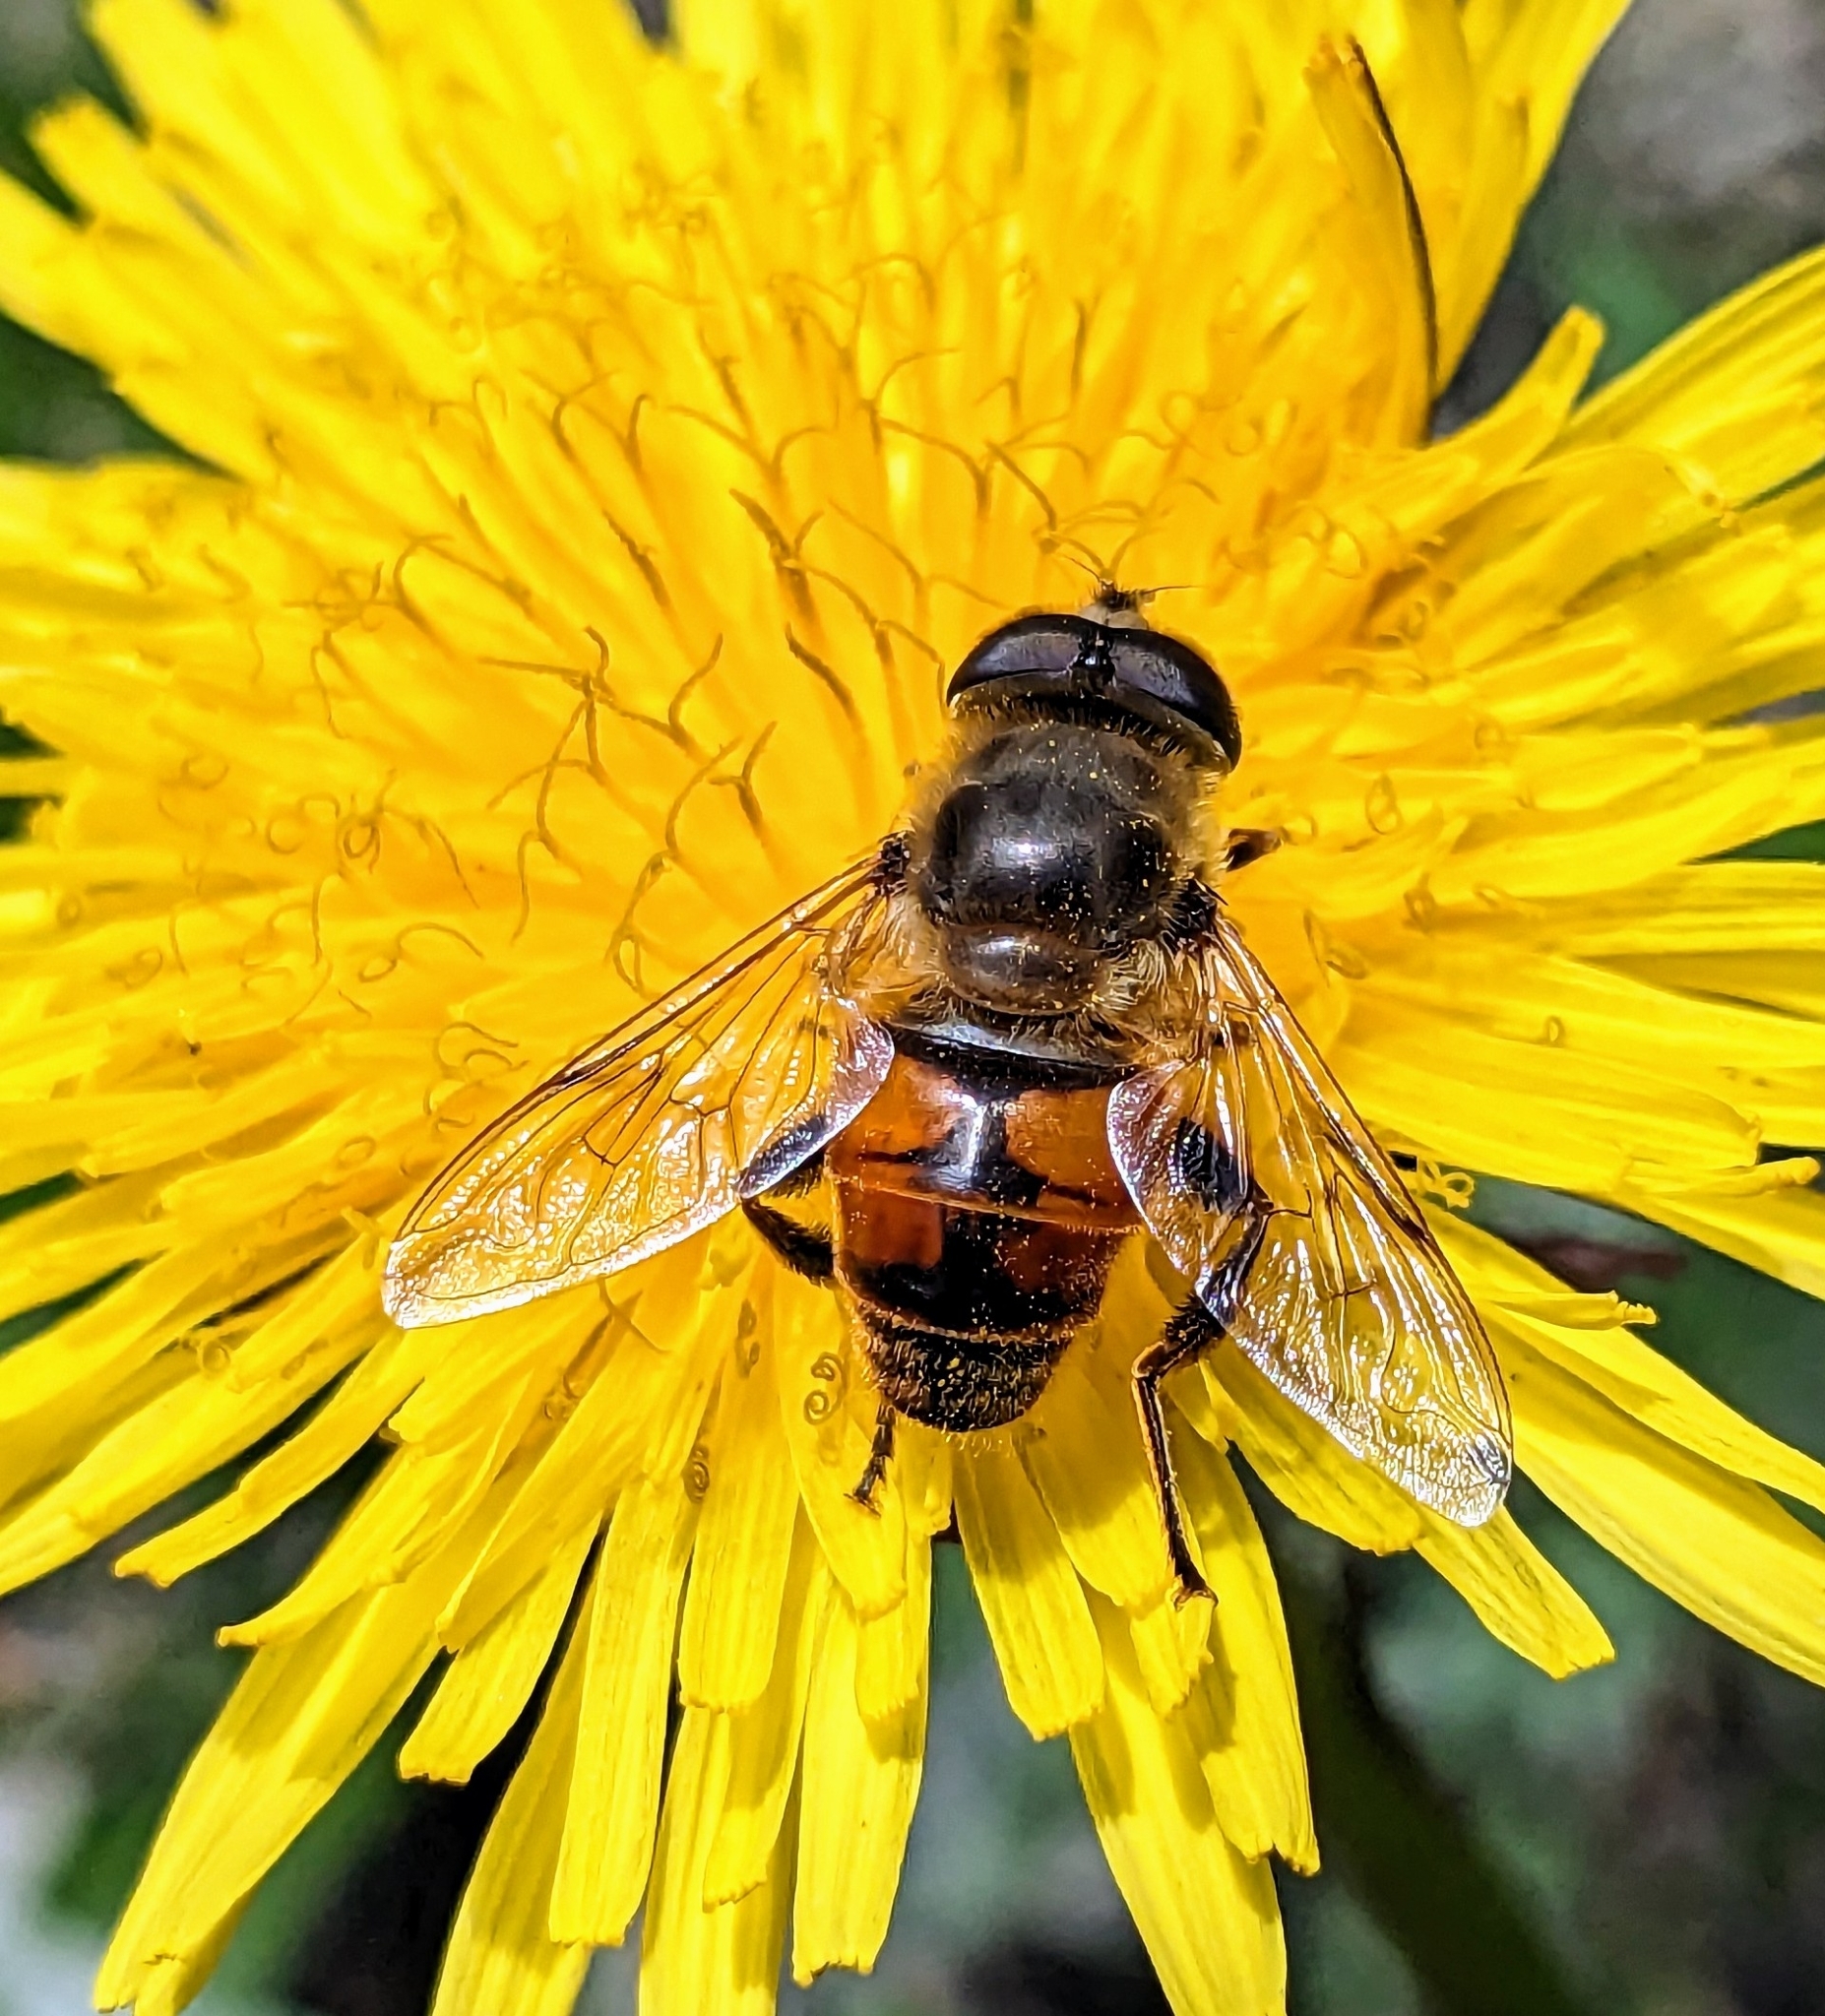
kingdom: Animalia
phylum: Arthropoda
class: Insecta
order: Diptera
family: Syrphidae
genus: Eristalis
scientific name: Eristalis tenax
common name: Drone fly
